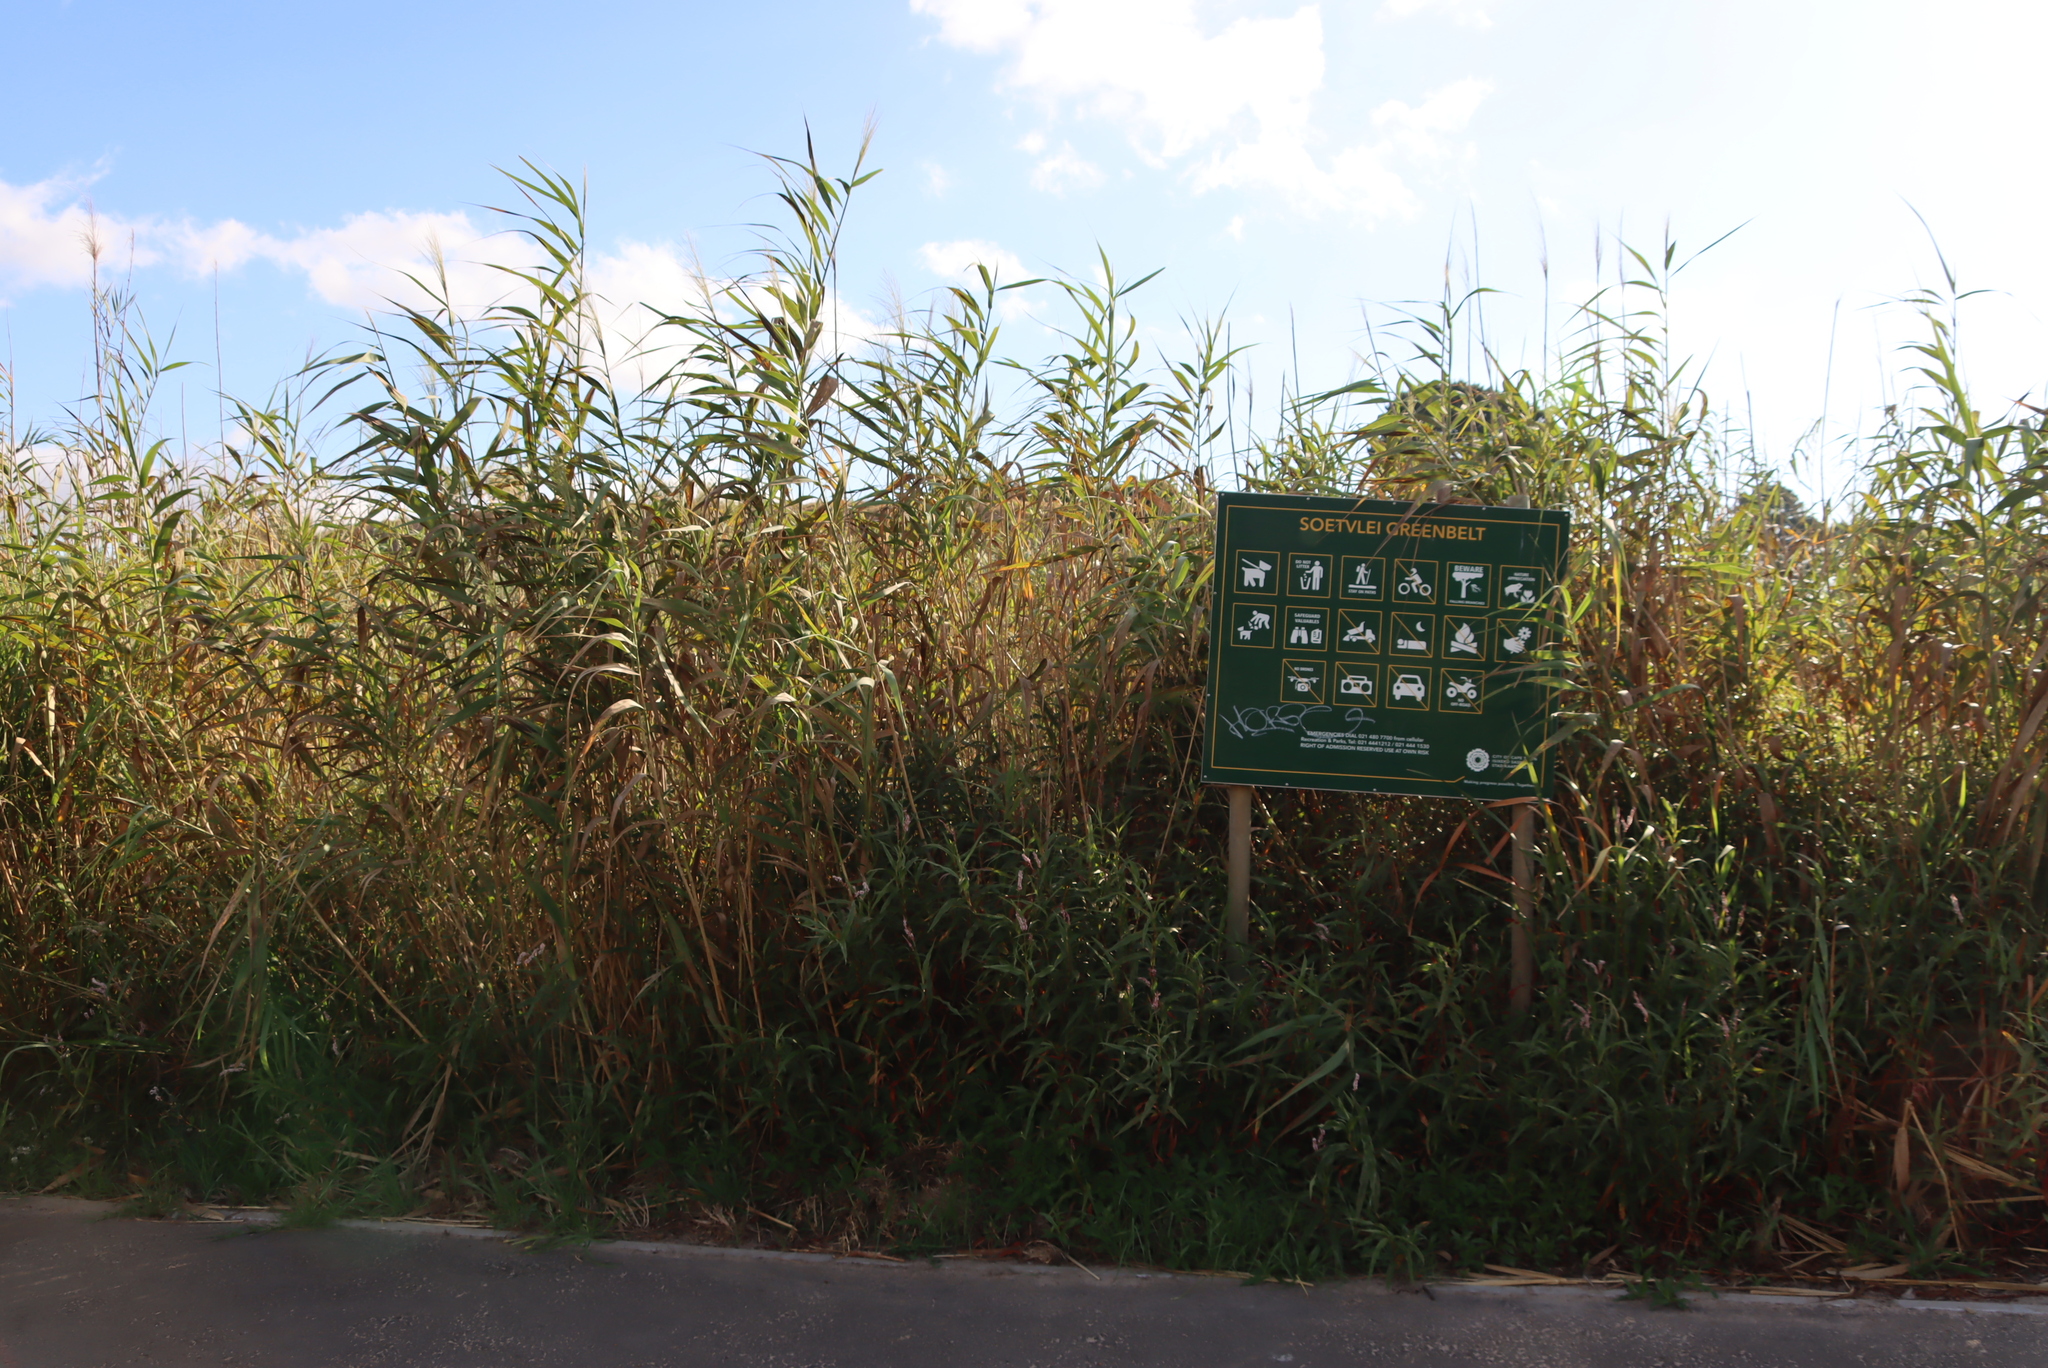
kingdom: Plantae
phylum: Tracheophyta
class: Liliopsida
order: Poales
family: Poaceae
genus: Phragmites
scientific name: Phragmites australis
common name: Common reed
